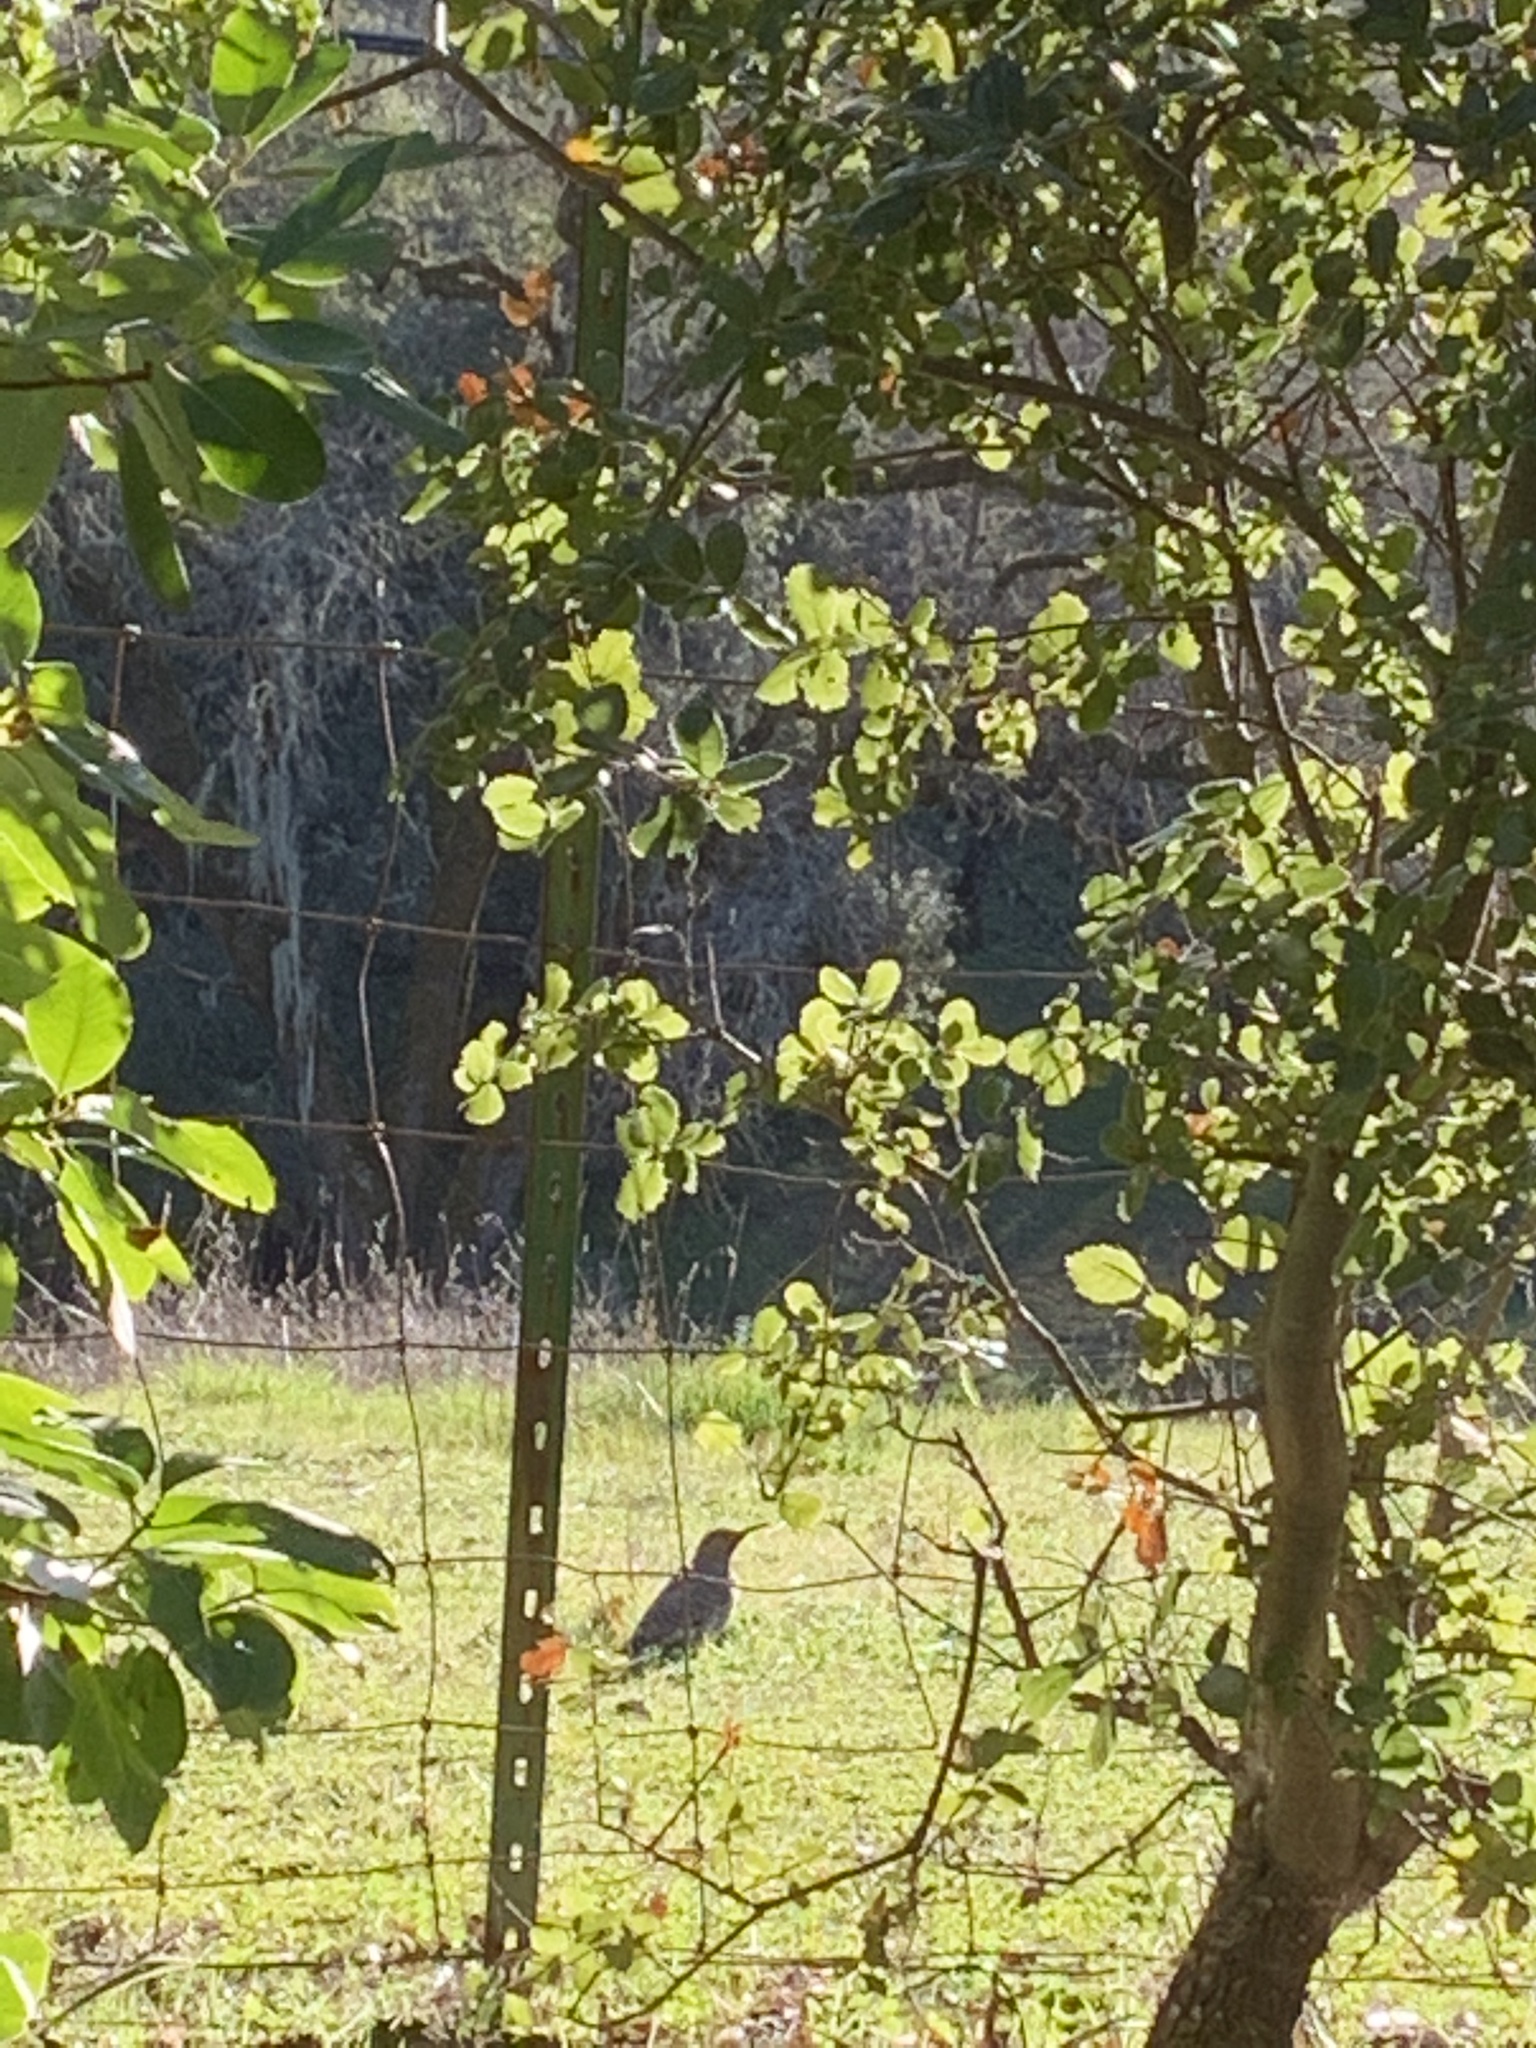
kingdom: Animalia
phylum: Chordata
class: Aves
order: Piciformes
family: Picidae
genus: Colaptes
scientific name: Colaptes auratus
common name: Northern flicker
